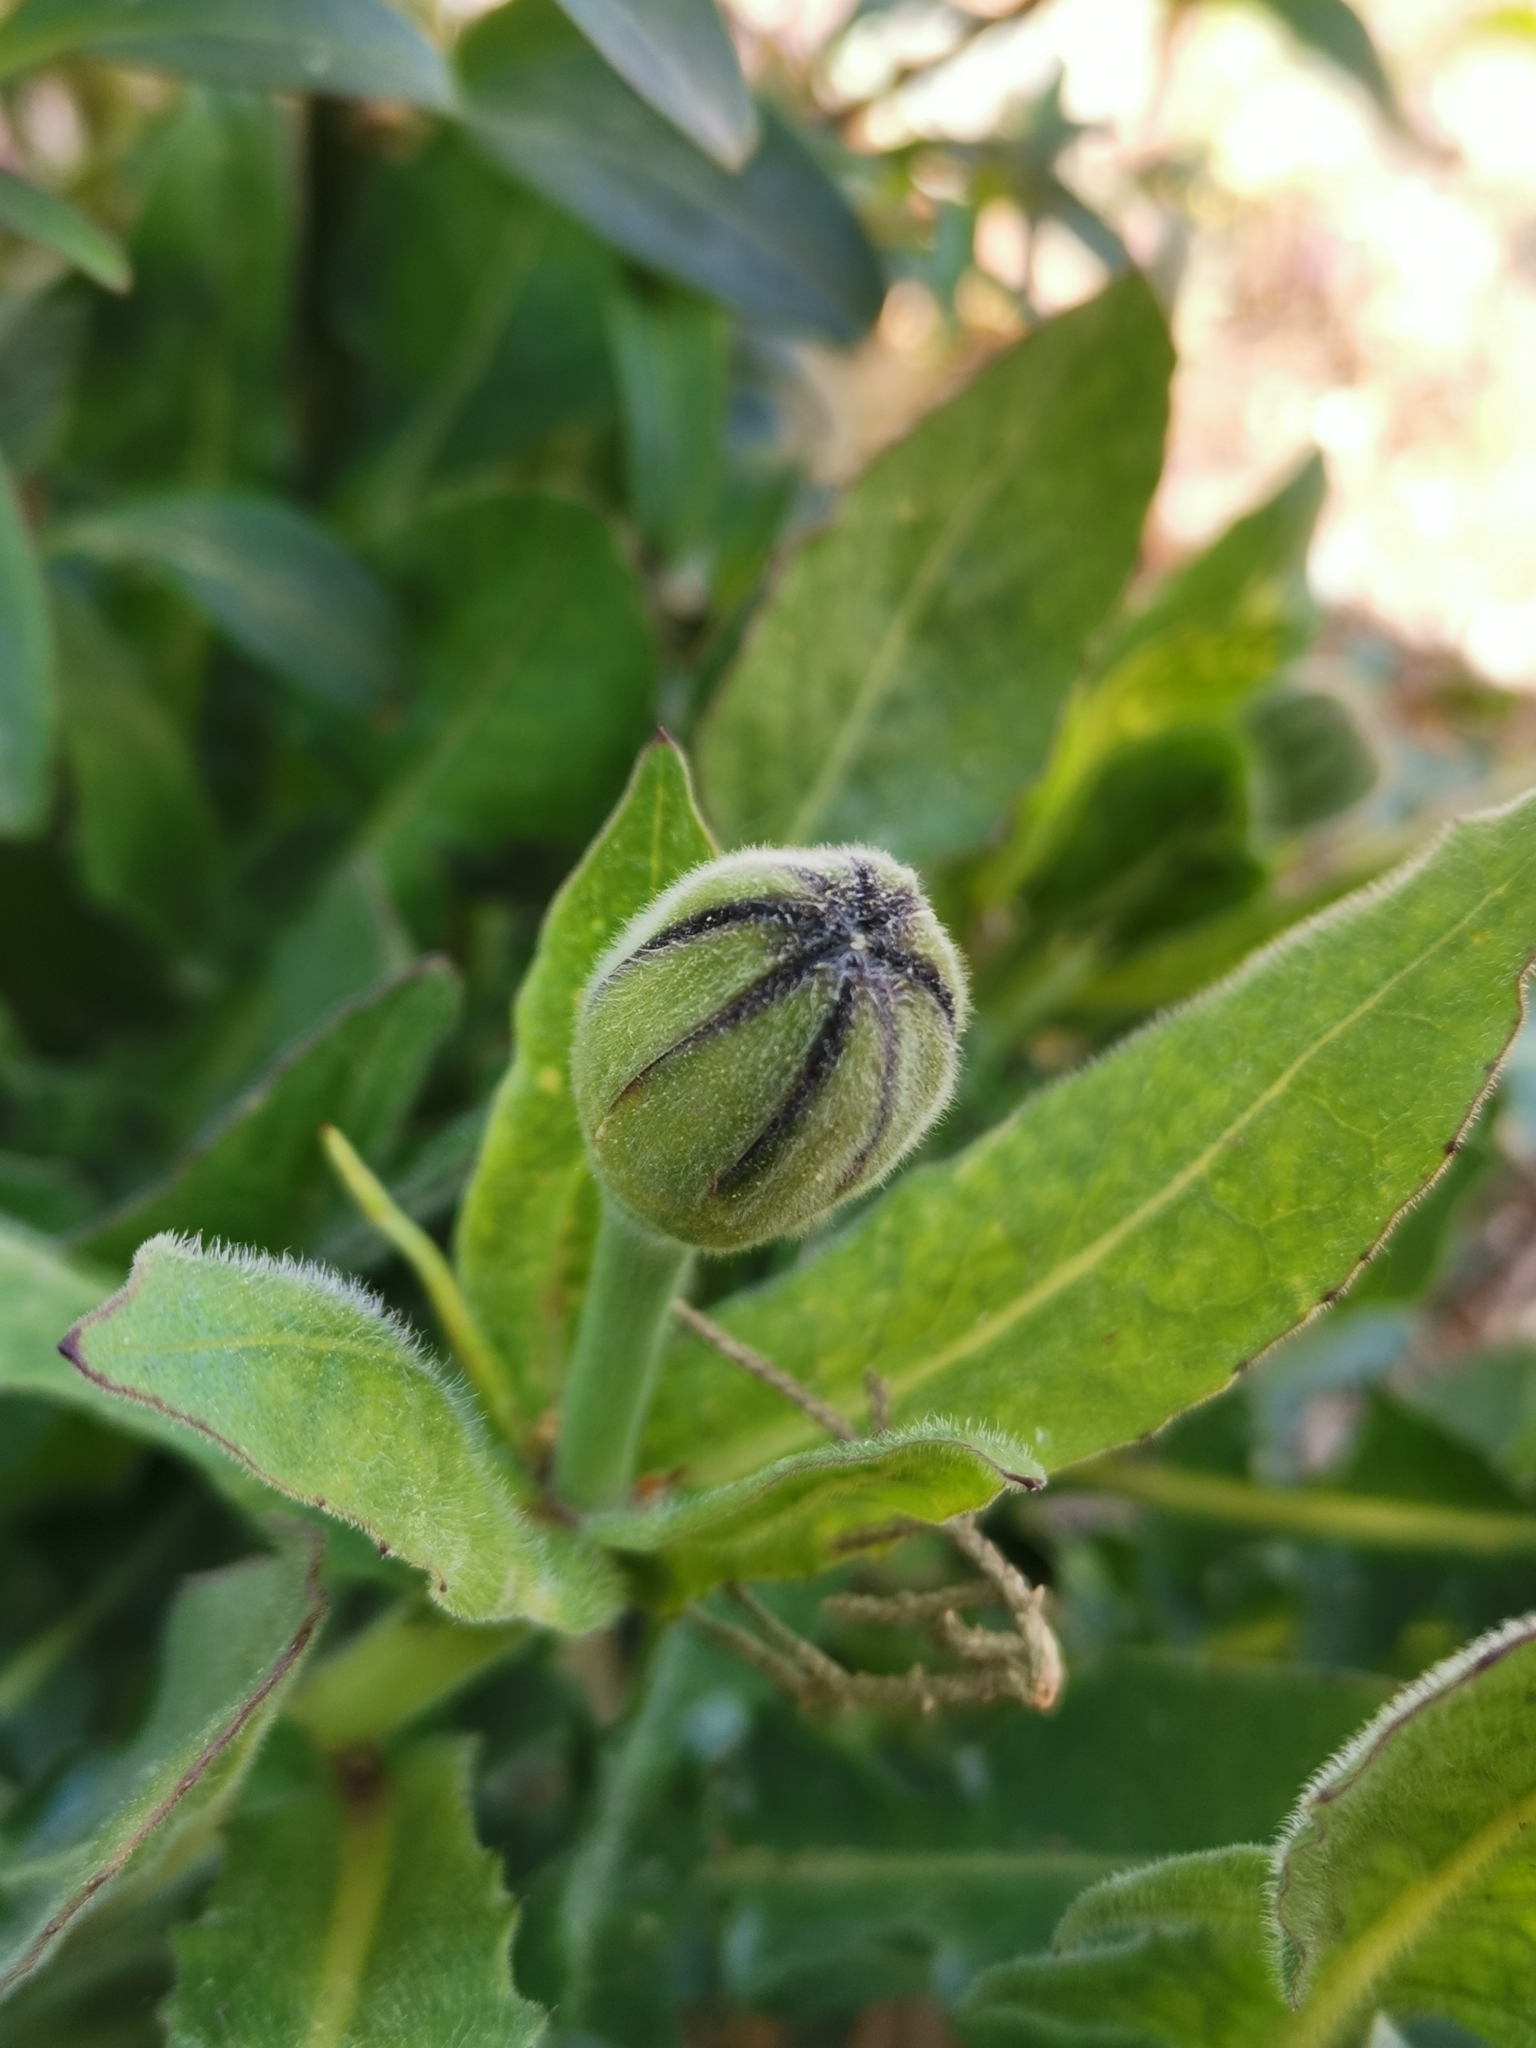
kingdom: Plantae
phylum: Tracheophyta
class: Magnoliopsida
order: Asterales
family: Asteraceae
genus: Urospermum
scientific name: Urospermum dalechampii
